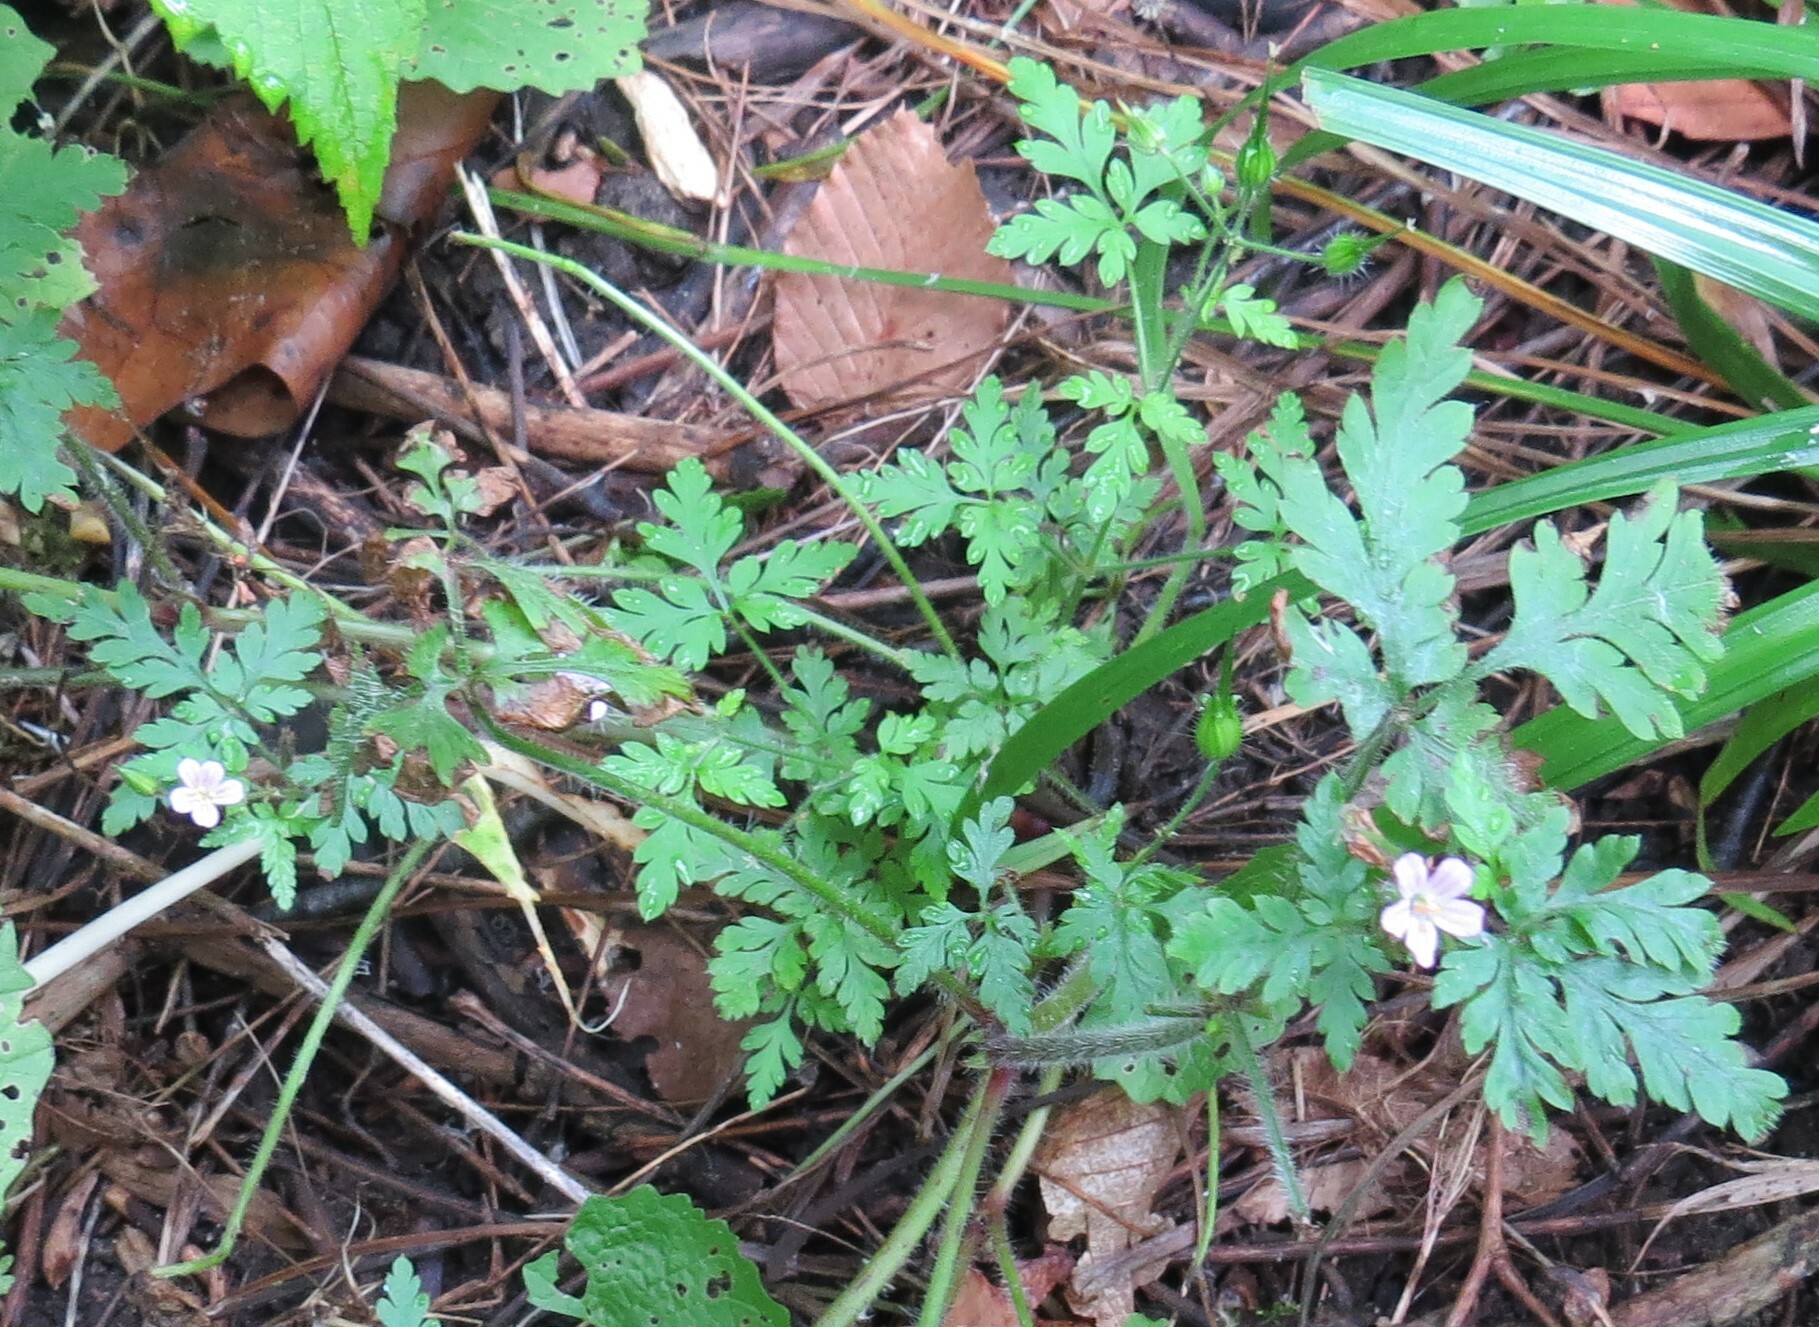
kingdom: Plantae
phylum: Tracheophyta
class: Magnoliopsida
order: Geraniales
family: Geraniaceae
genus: Geranium
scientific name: Geranium robertianum
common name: Herb-robert
